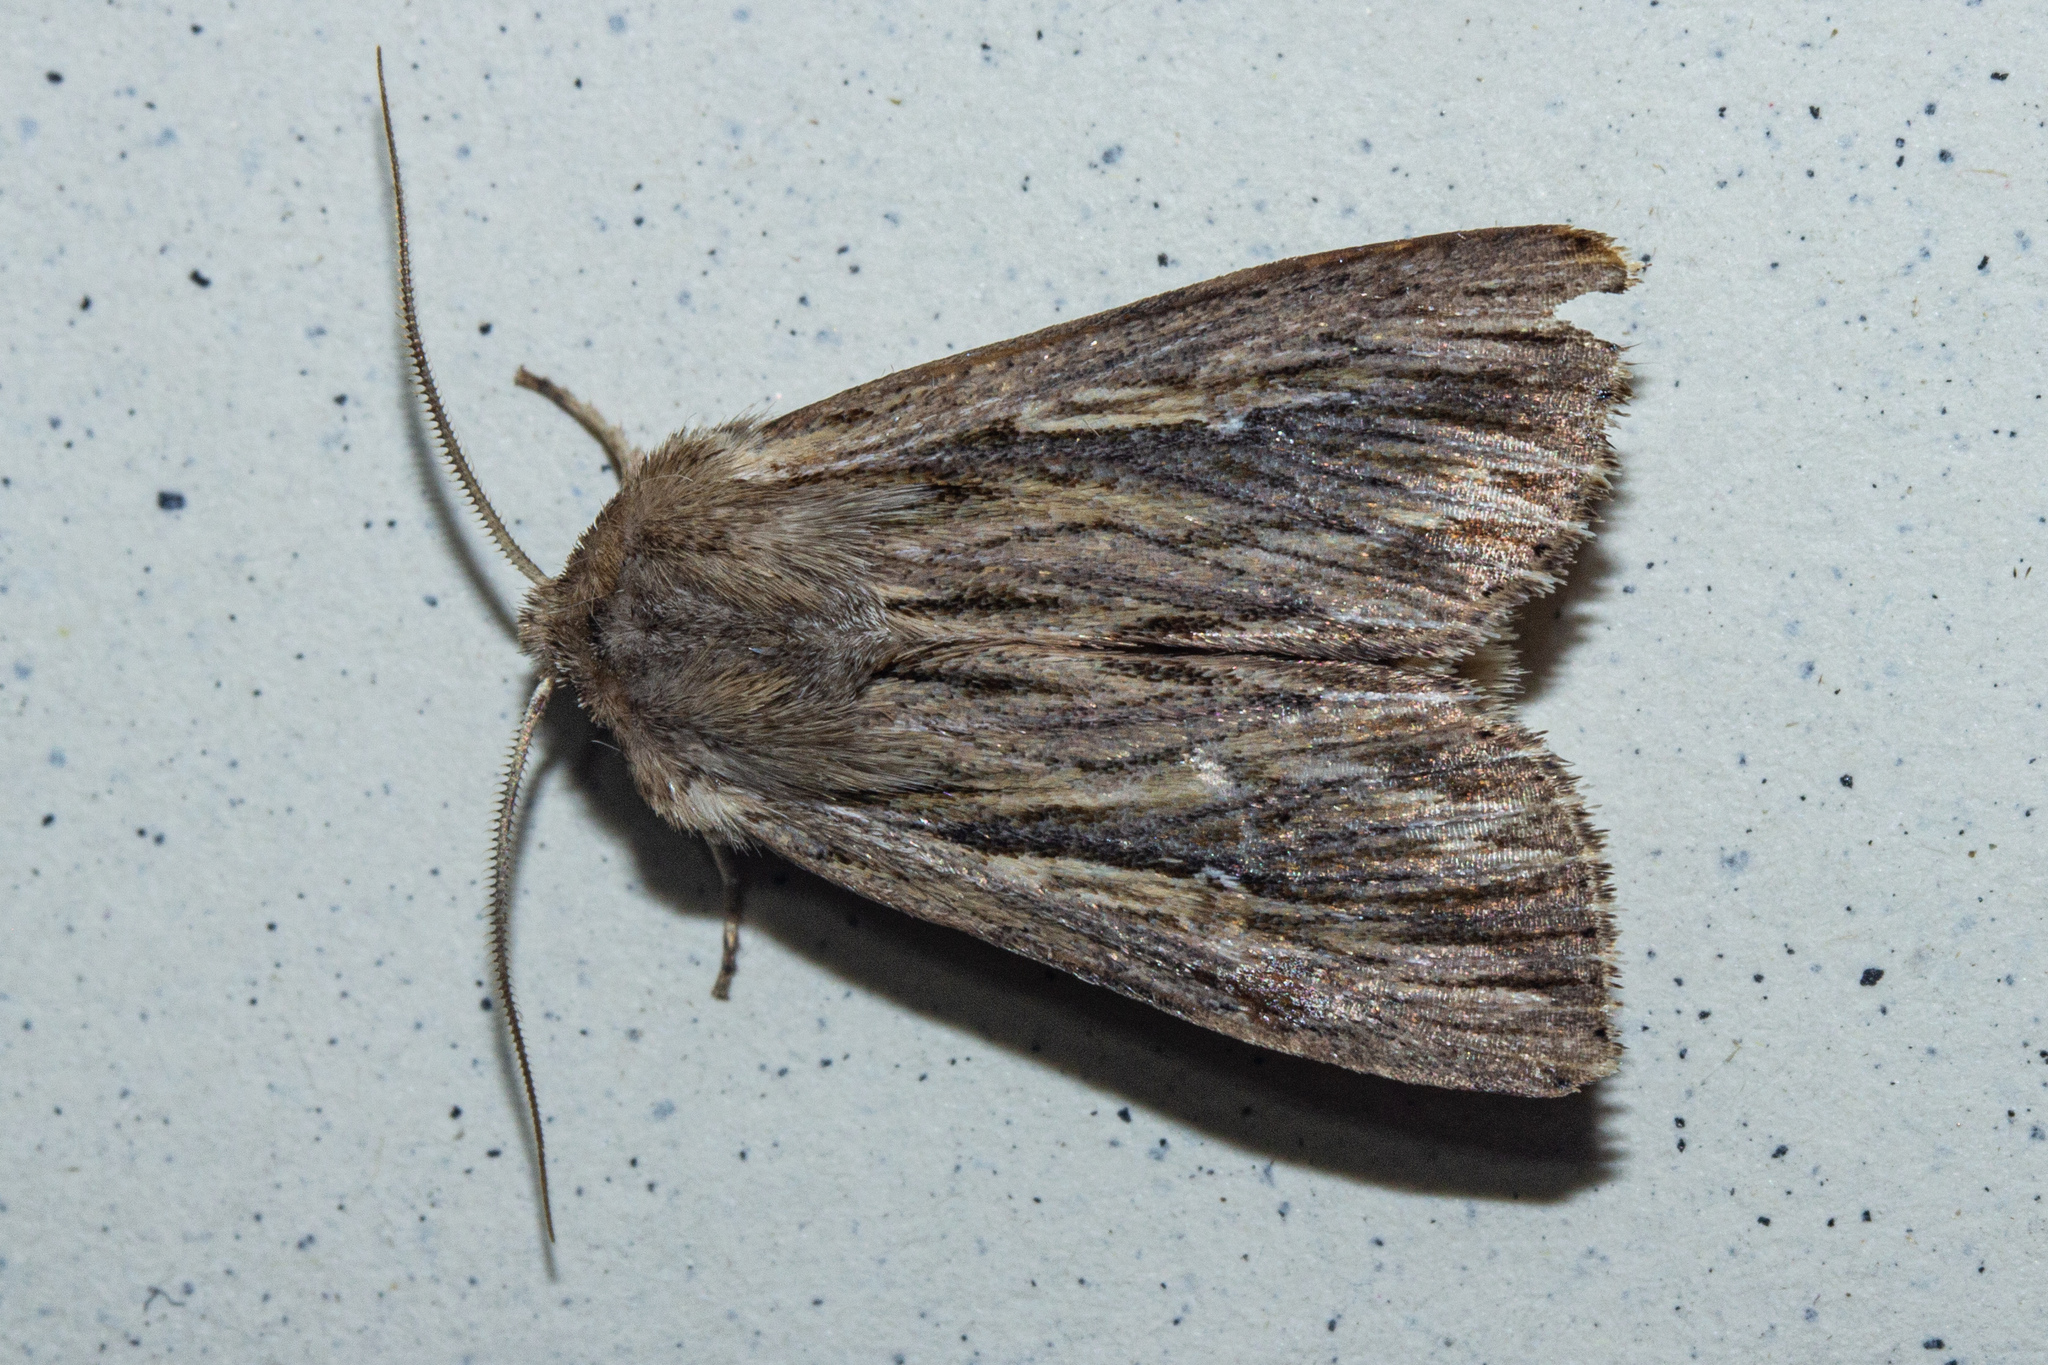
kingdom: Animalia
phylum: Arthropoda
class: Insecta
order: Lepidoptera
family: Noctuidae
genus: Persectania
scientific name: Persectania aversa
